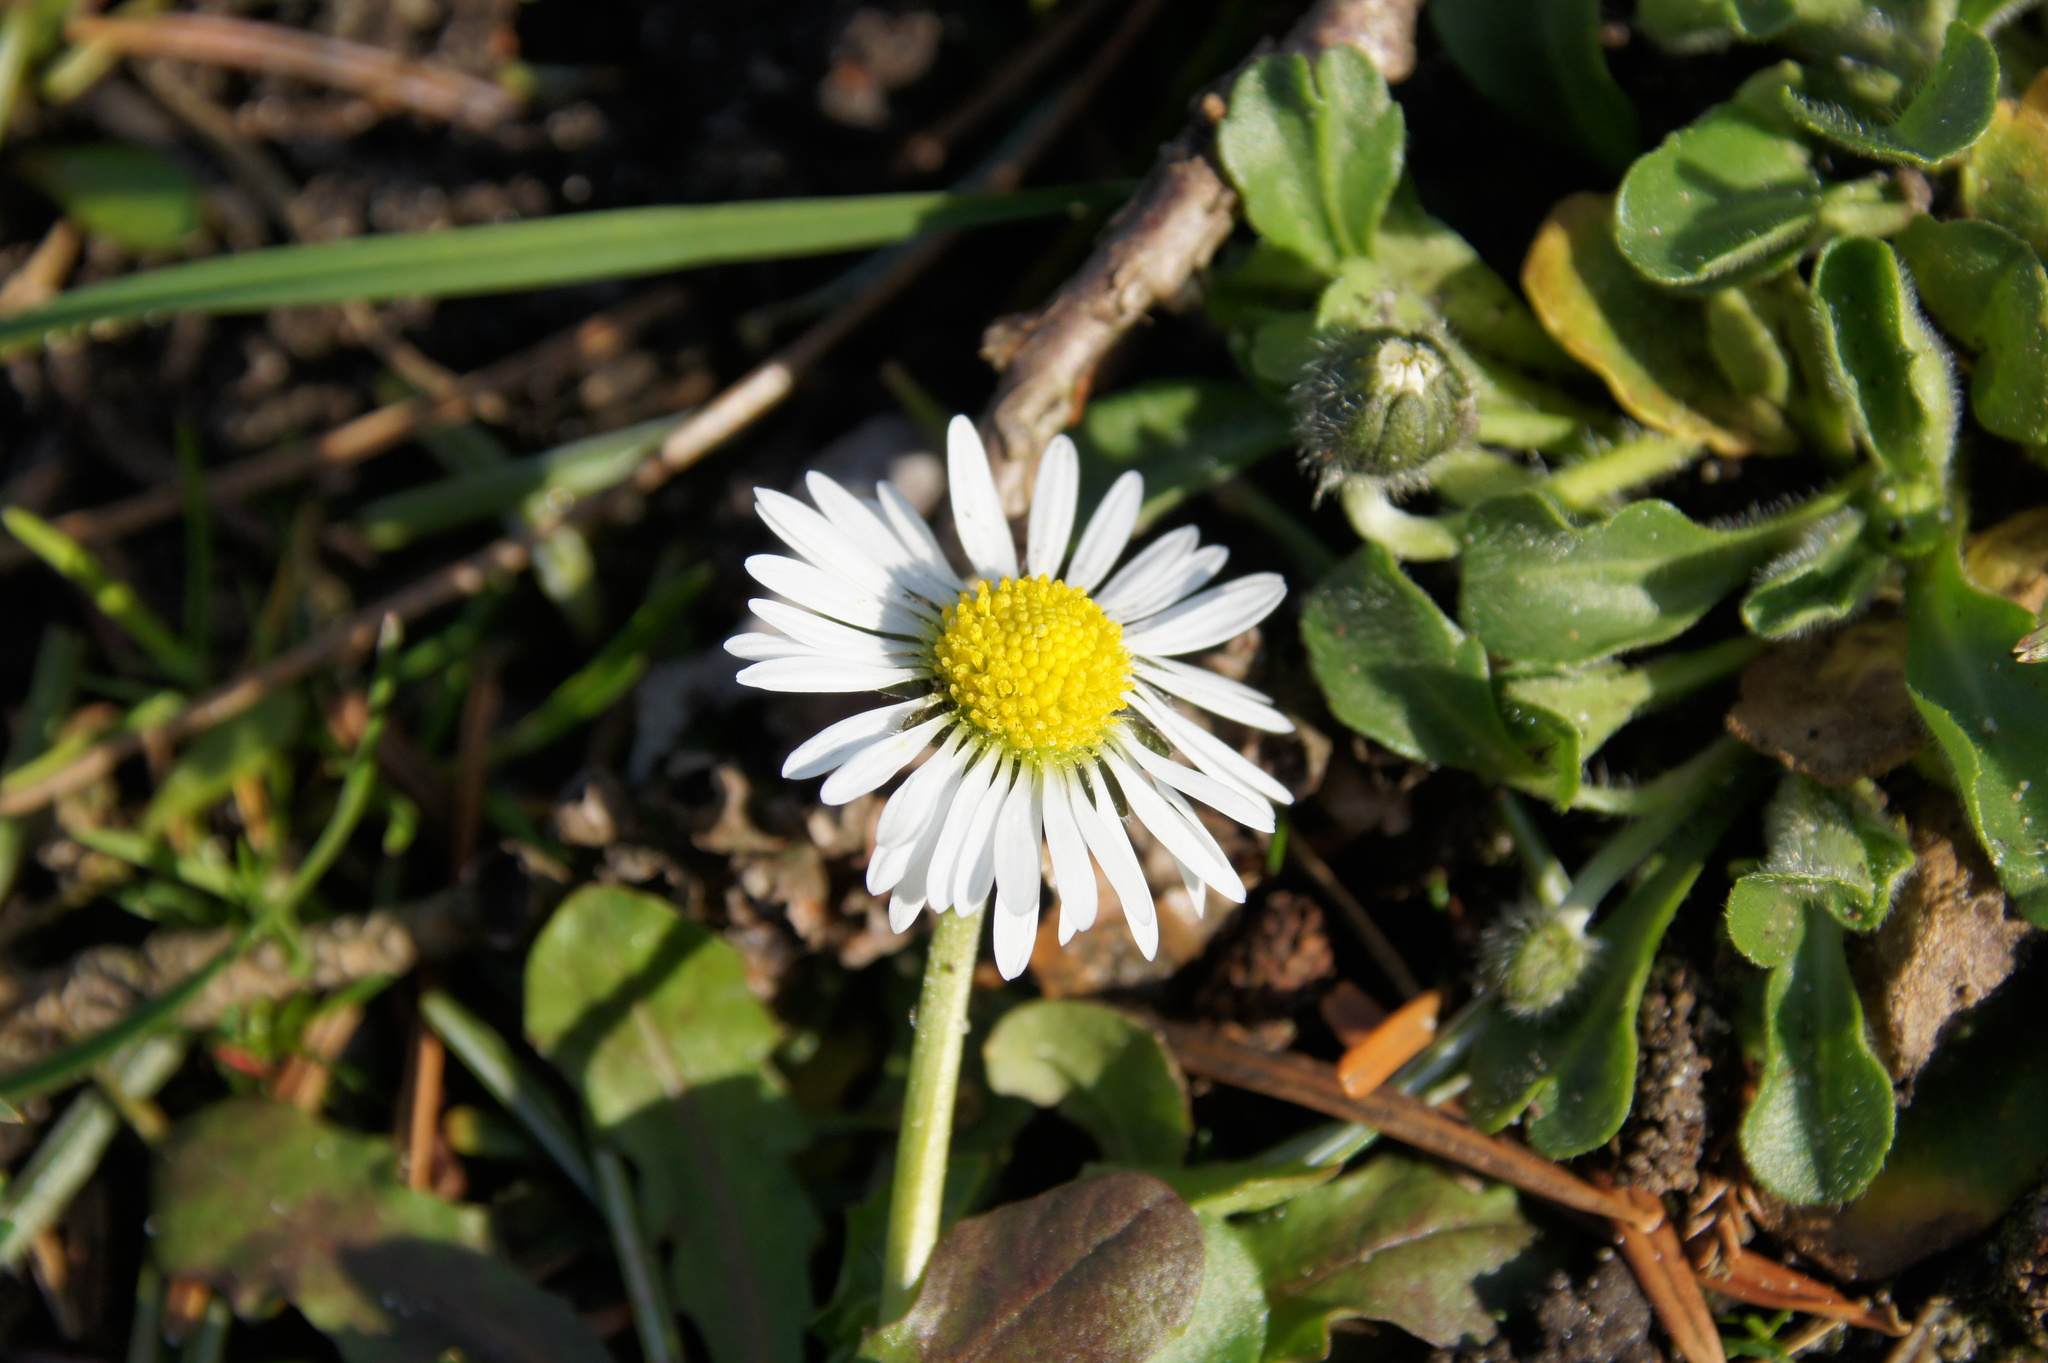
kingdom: Plantae
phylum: Tracheophyta
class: Magnoliopsida
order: Asterales
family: Asteraceae
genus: Bellis
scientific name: Bellis perennis
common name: Lawndaisy
